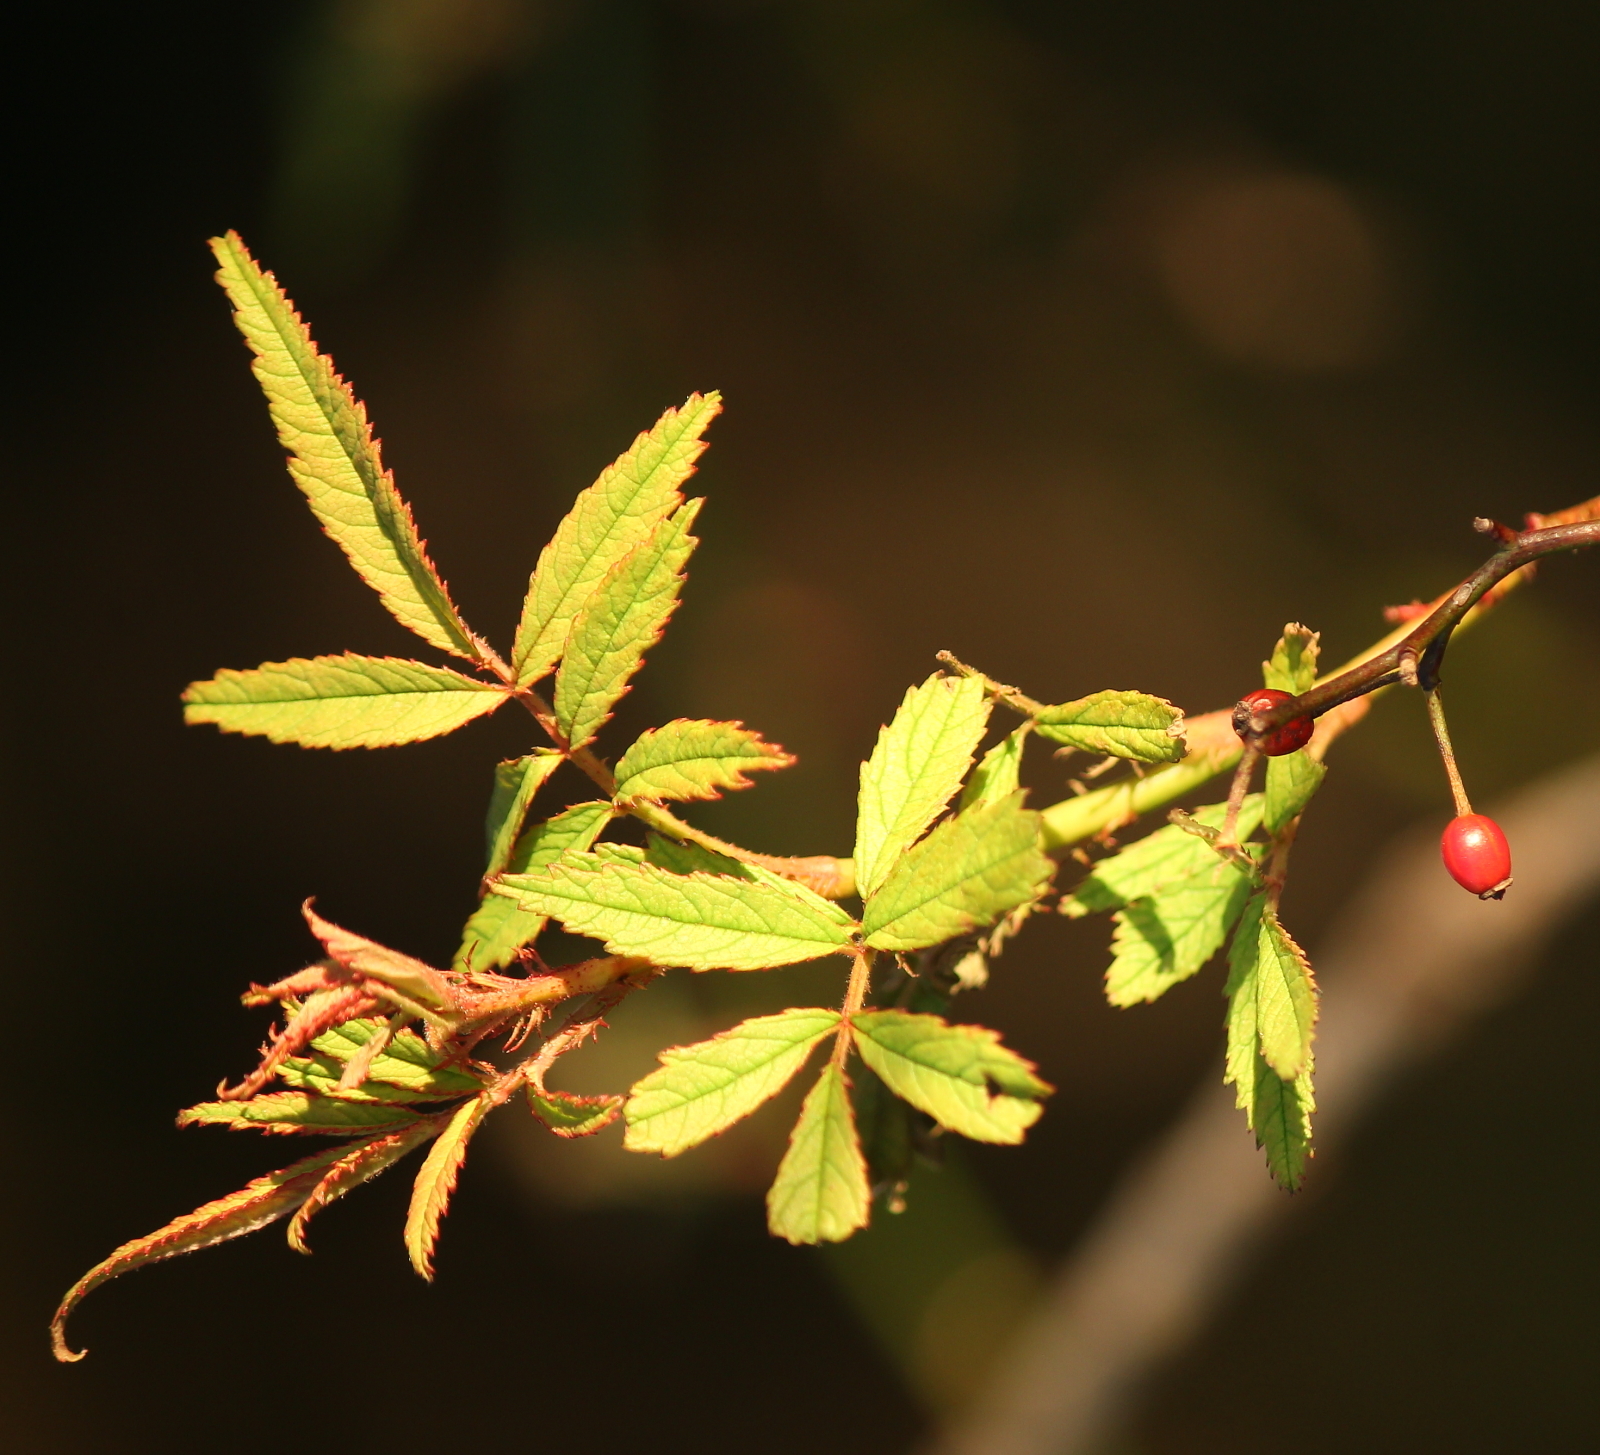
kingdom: Plantae
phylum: Tracheophyta
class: Magnoliopsida
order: Rosales
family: Rosaceae
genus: Rosa
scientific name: Rosa multiflora
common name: Multiflora rose
